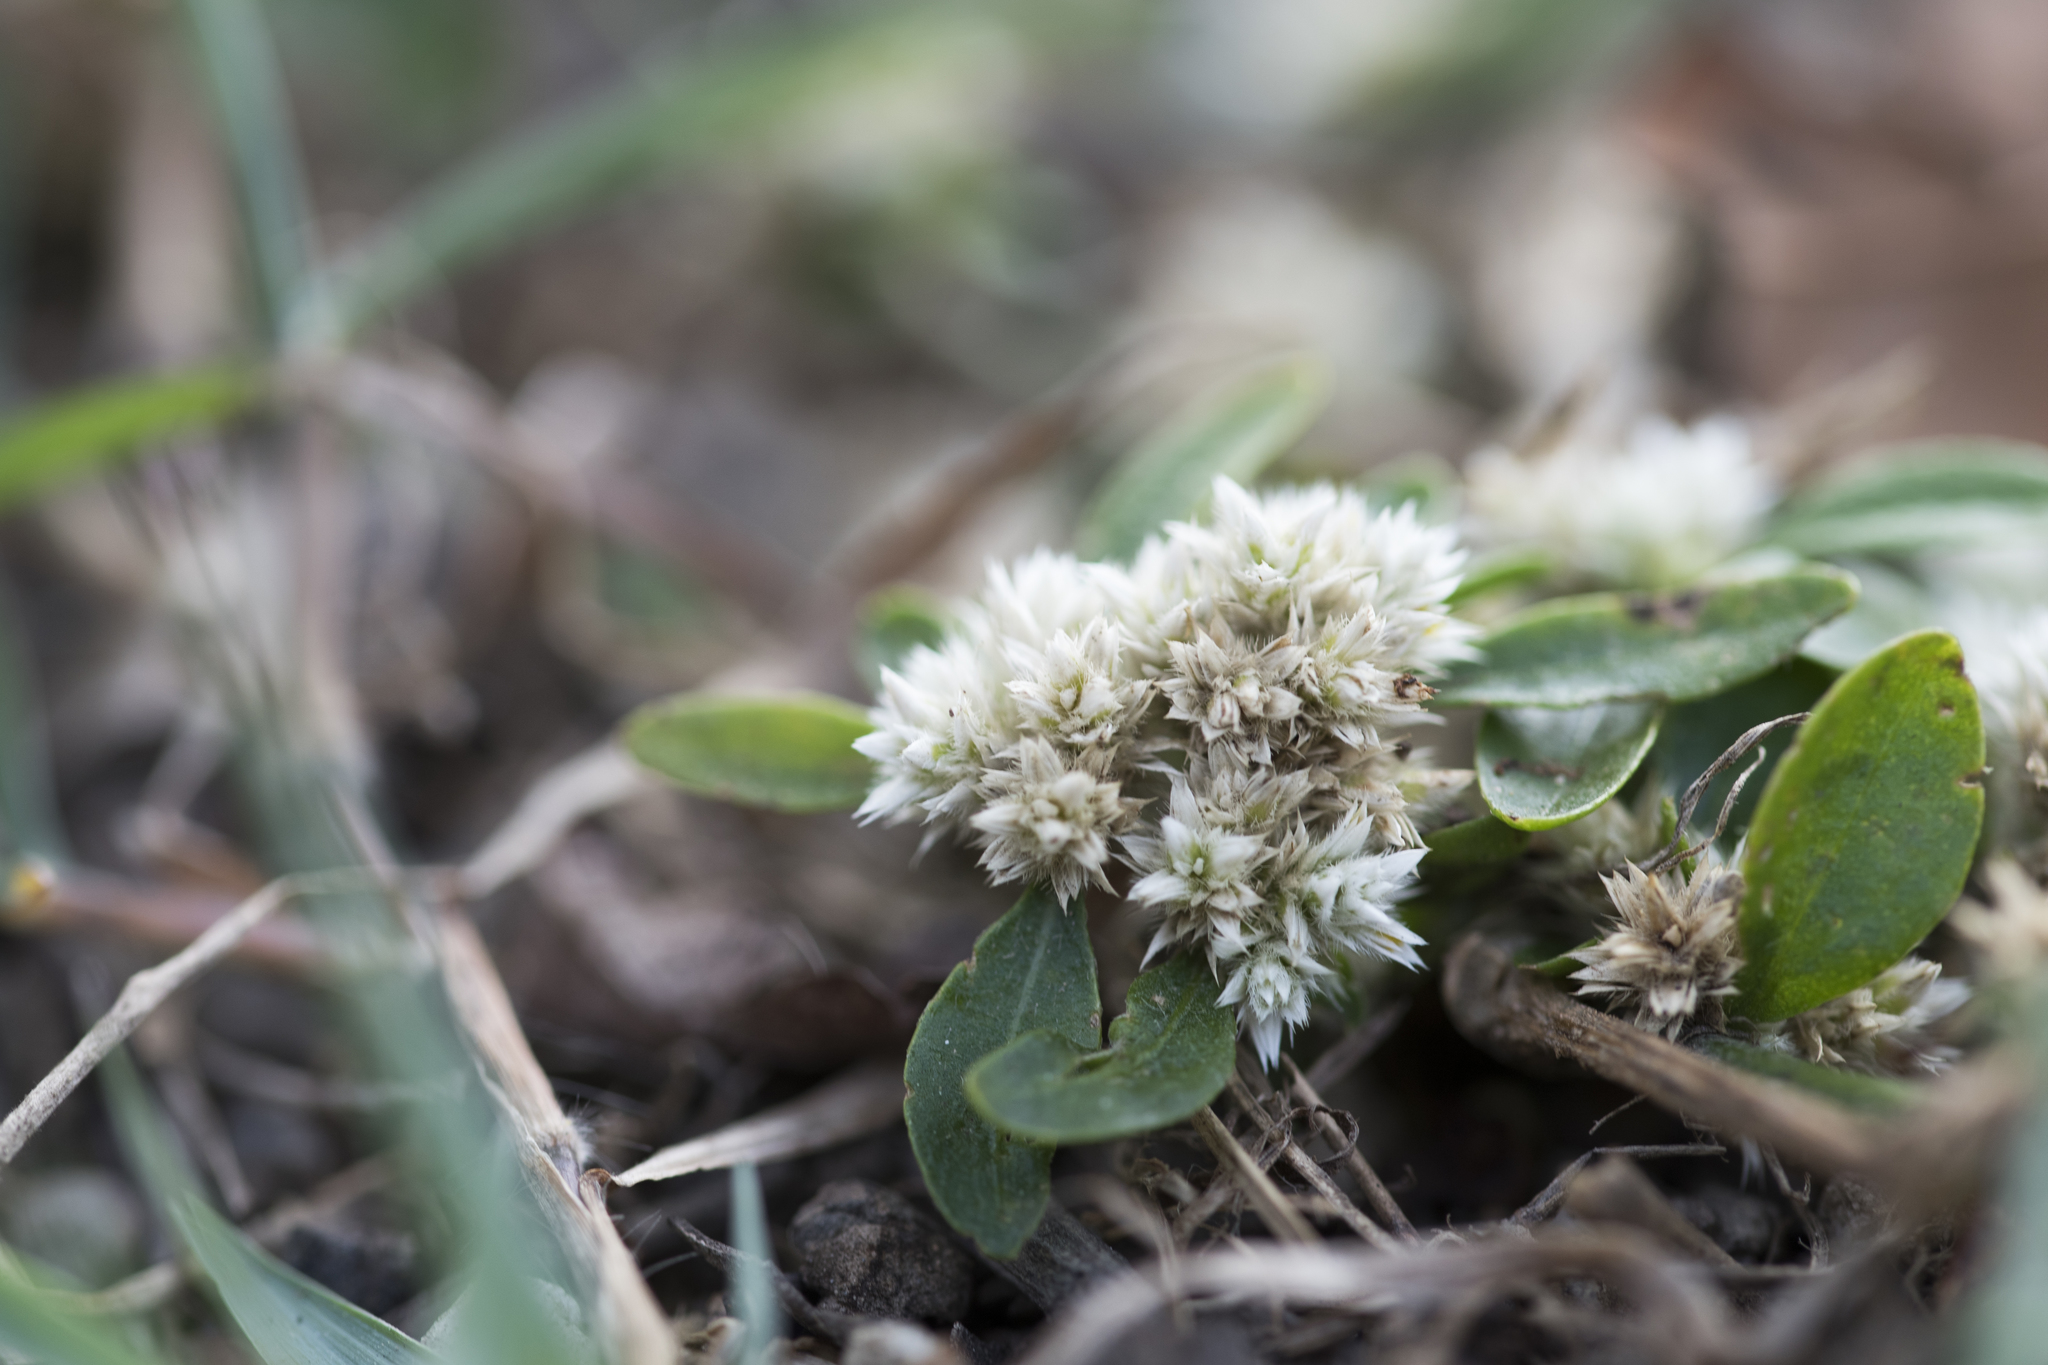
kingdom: Plantae
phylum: Tracheophyta
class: Magnoliopsida
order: Caryophyllales
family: Amaranthaceae
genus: Alternanthera
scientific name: Alternanthera bettzickiana
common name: Calico-plant
